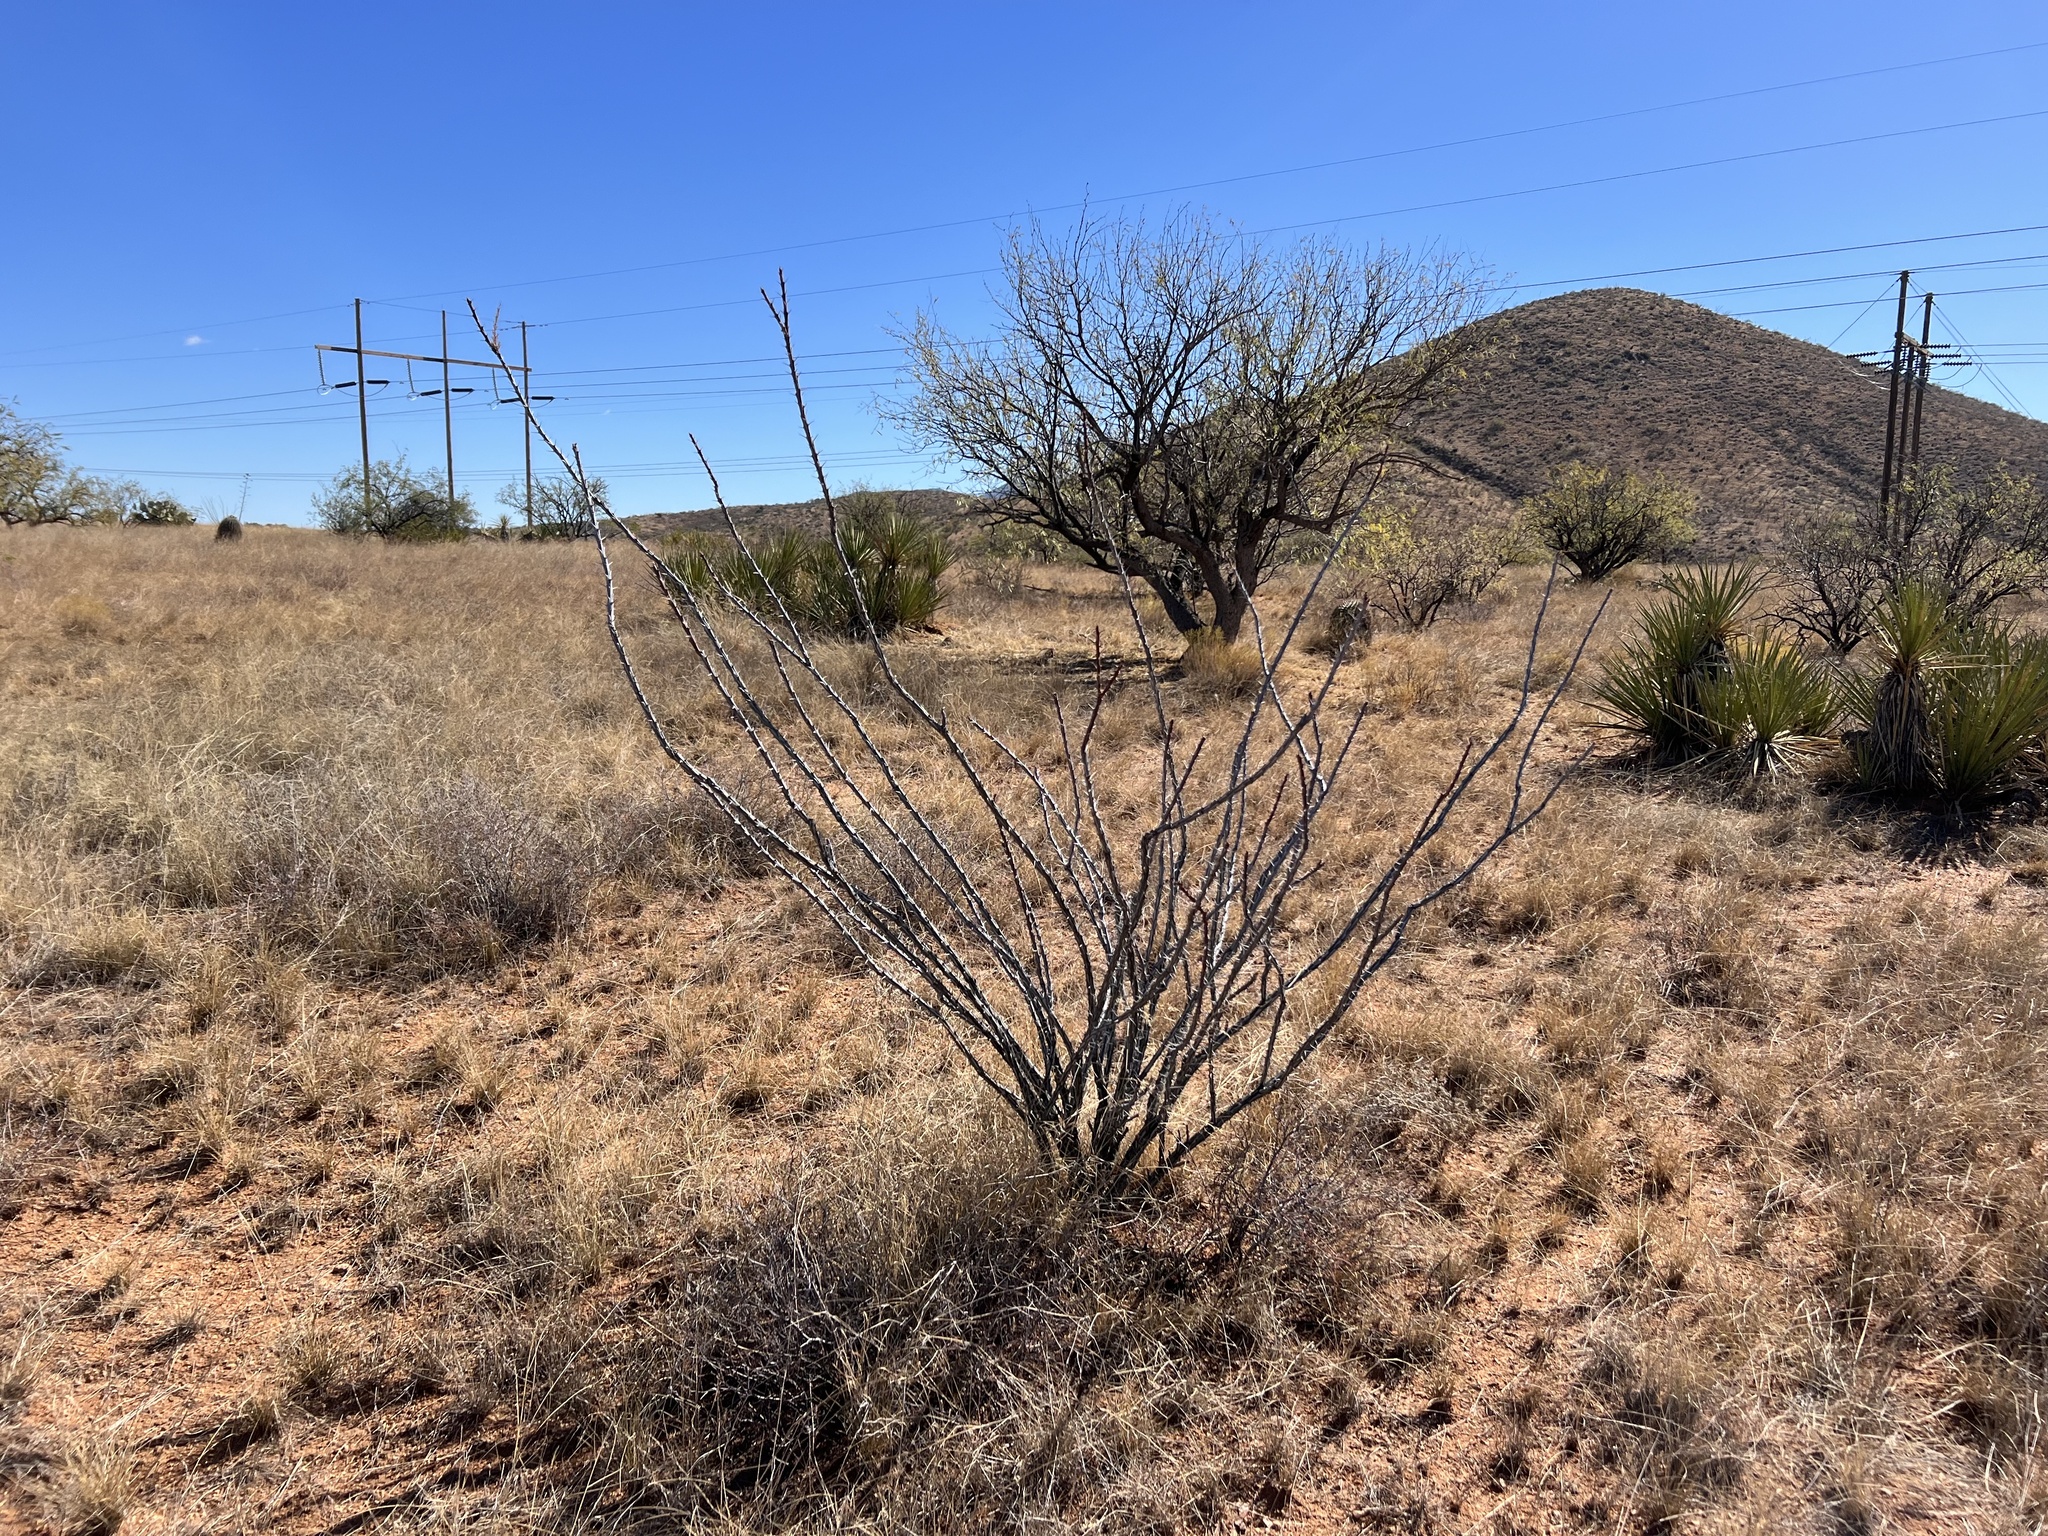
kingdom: Plantae
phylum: Tracheophyta
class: Magnoliopsida
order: Ericales
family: Fouquieriaceae
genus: Fouquieria
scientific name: Fouquieria splendens
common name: Vine-cactus
